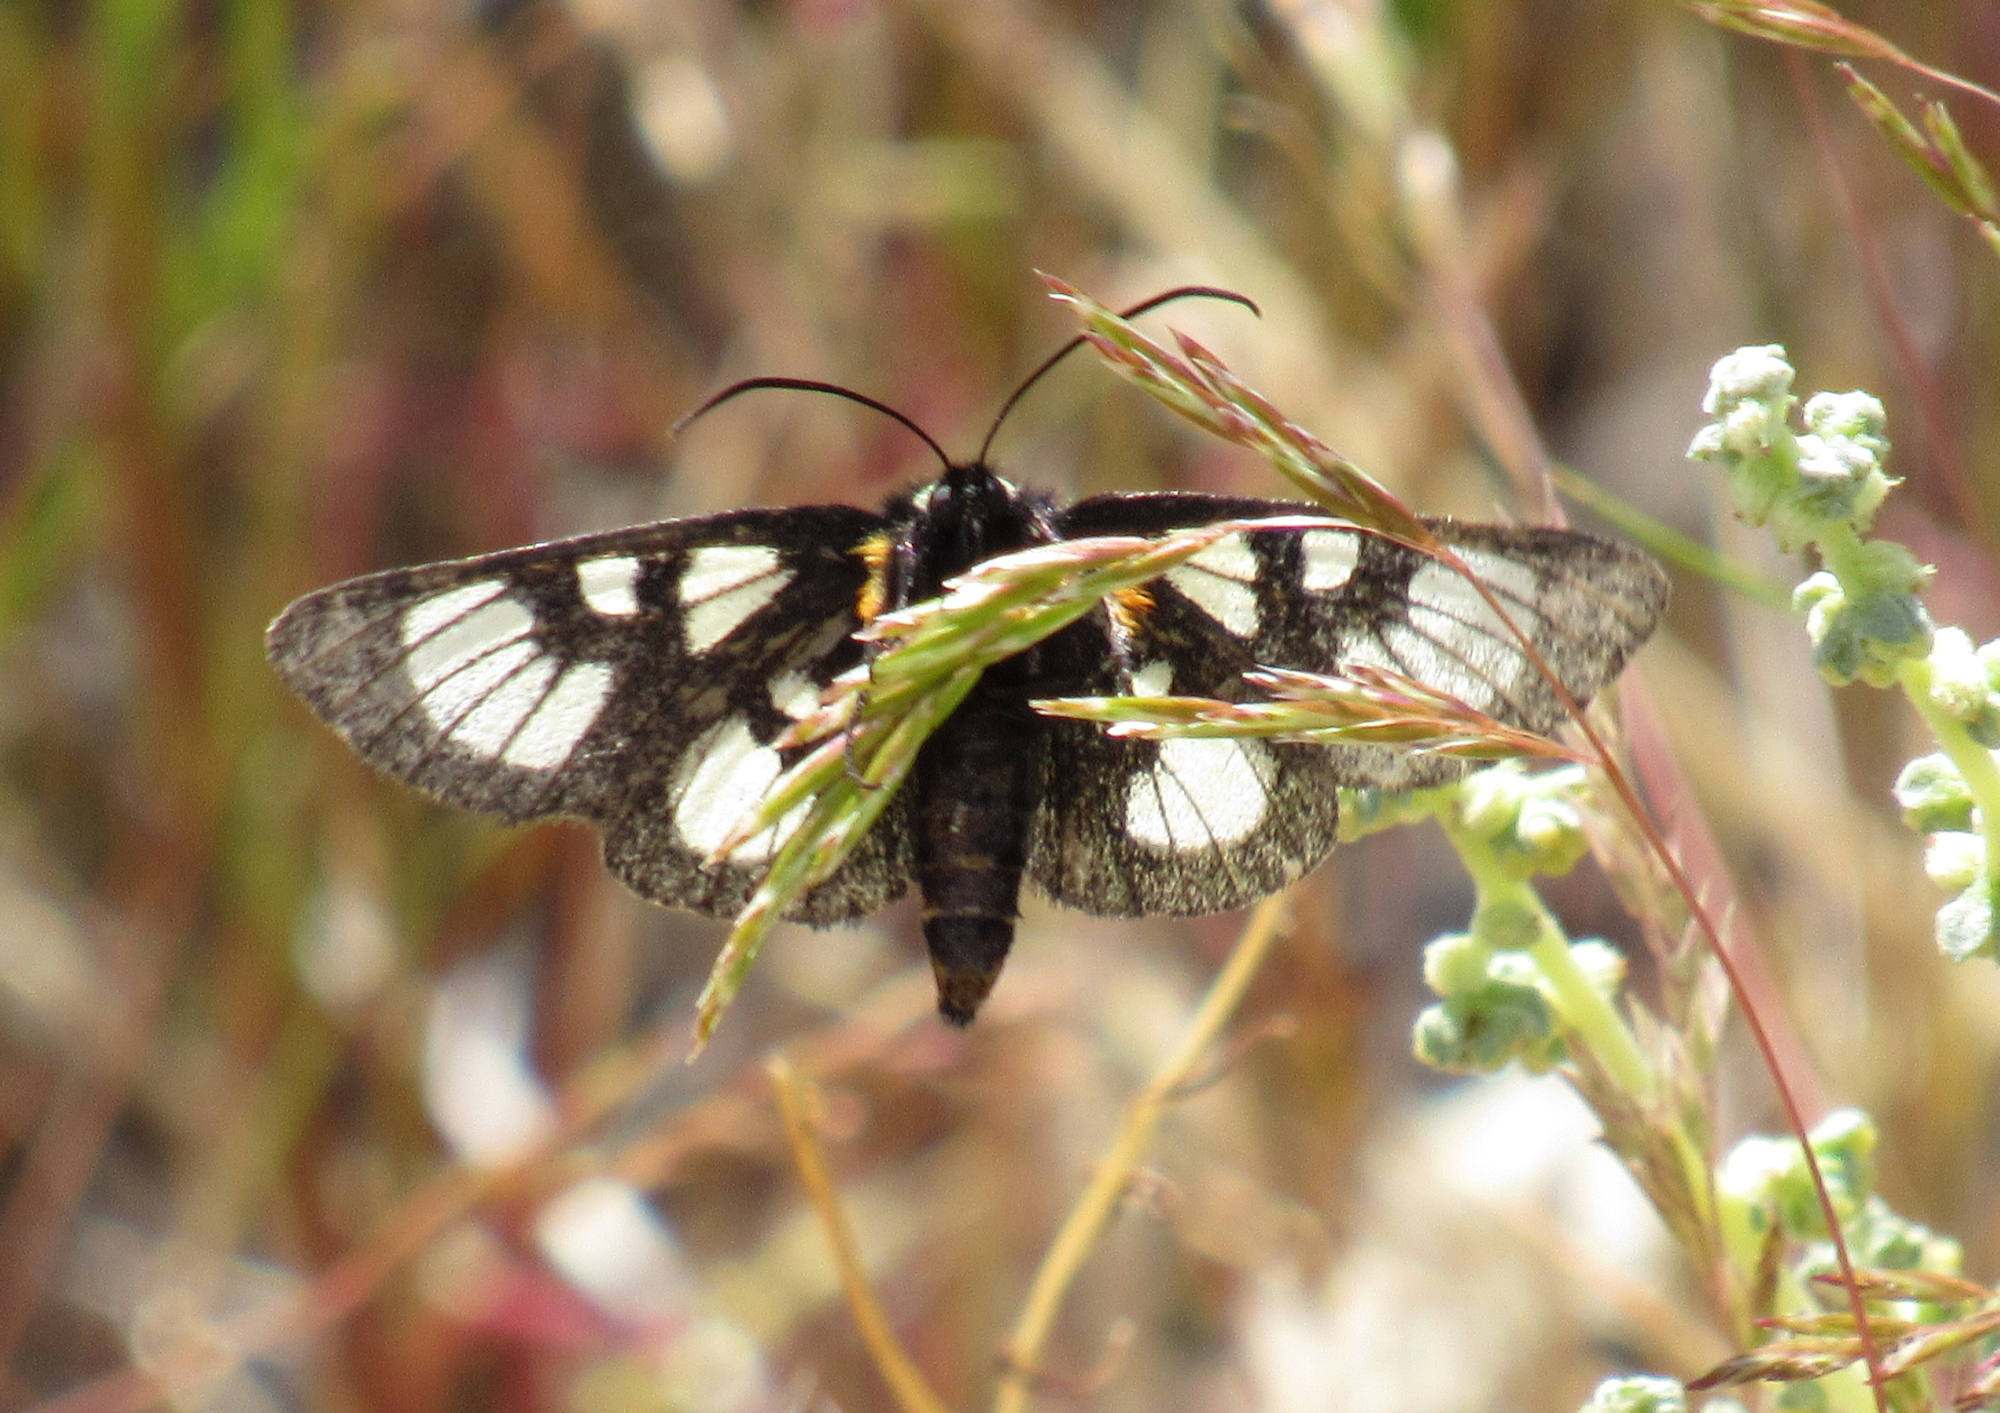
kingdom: Animalia
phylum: Arthropoda
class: Insecta
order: Lepidoptera
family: Noctuidae
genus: Alypia
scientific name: Alypia ridingsii
